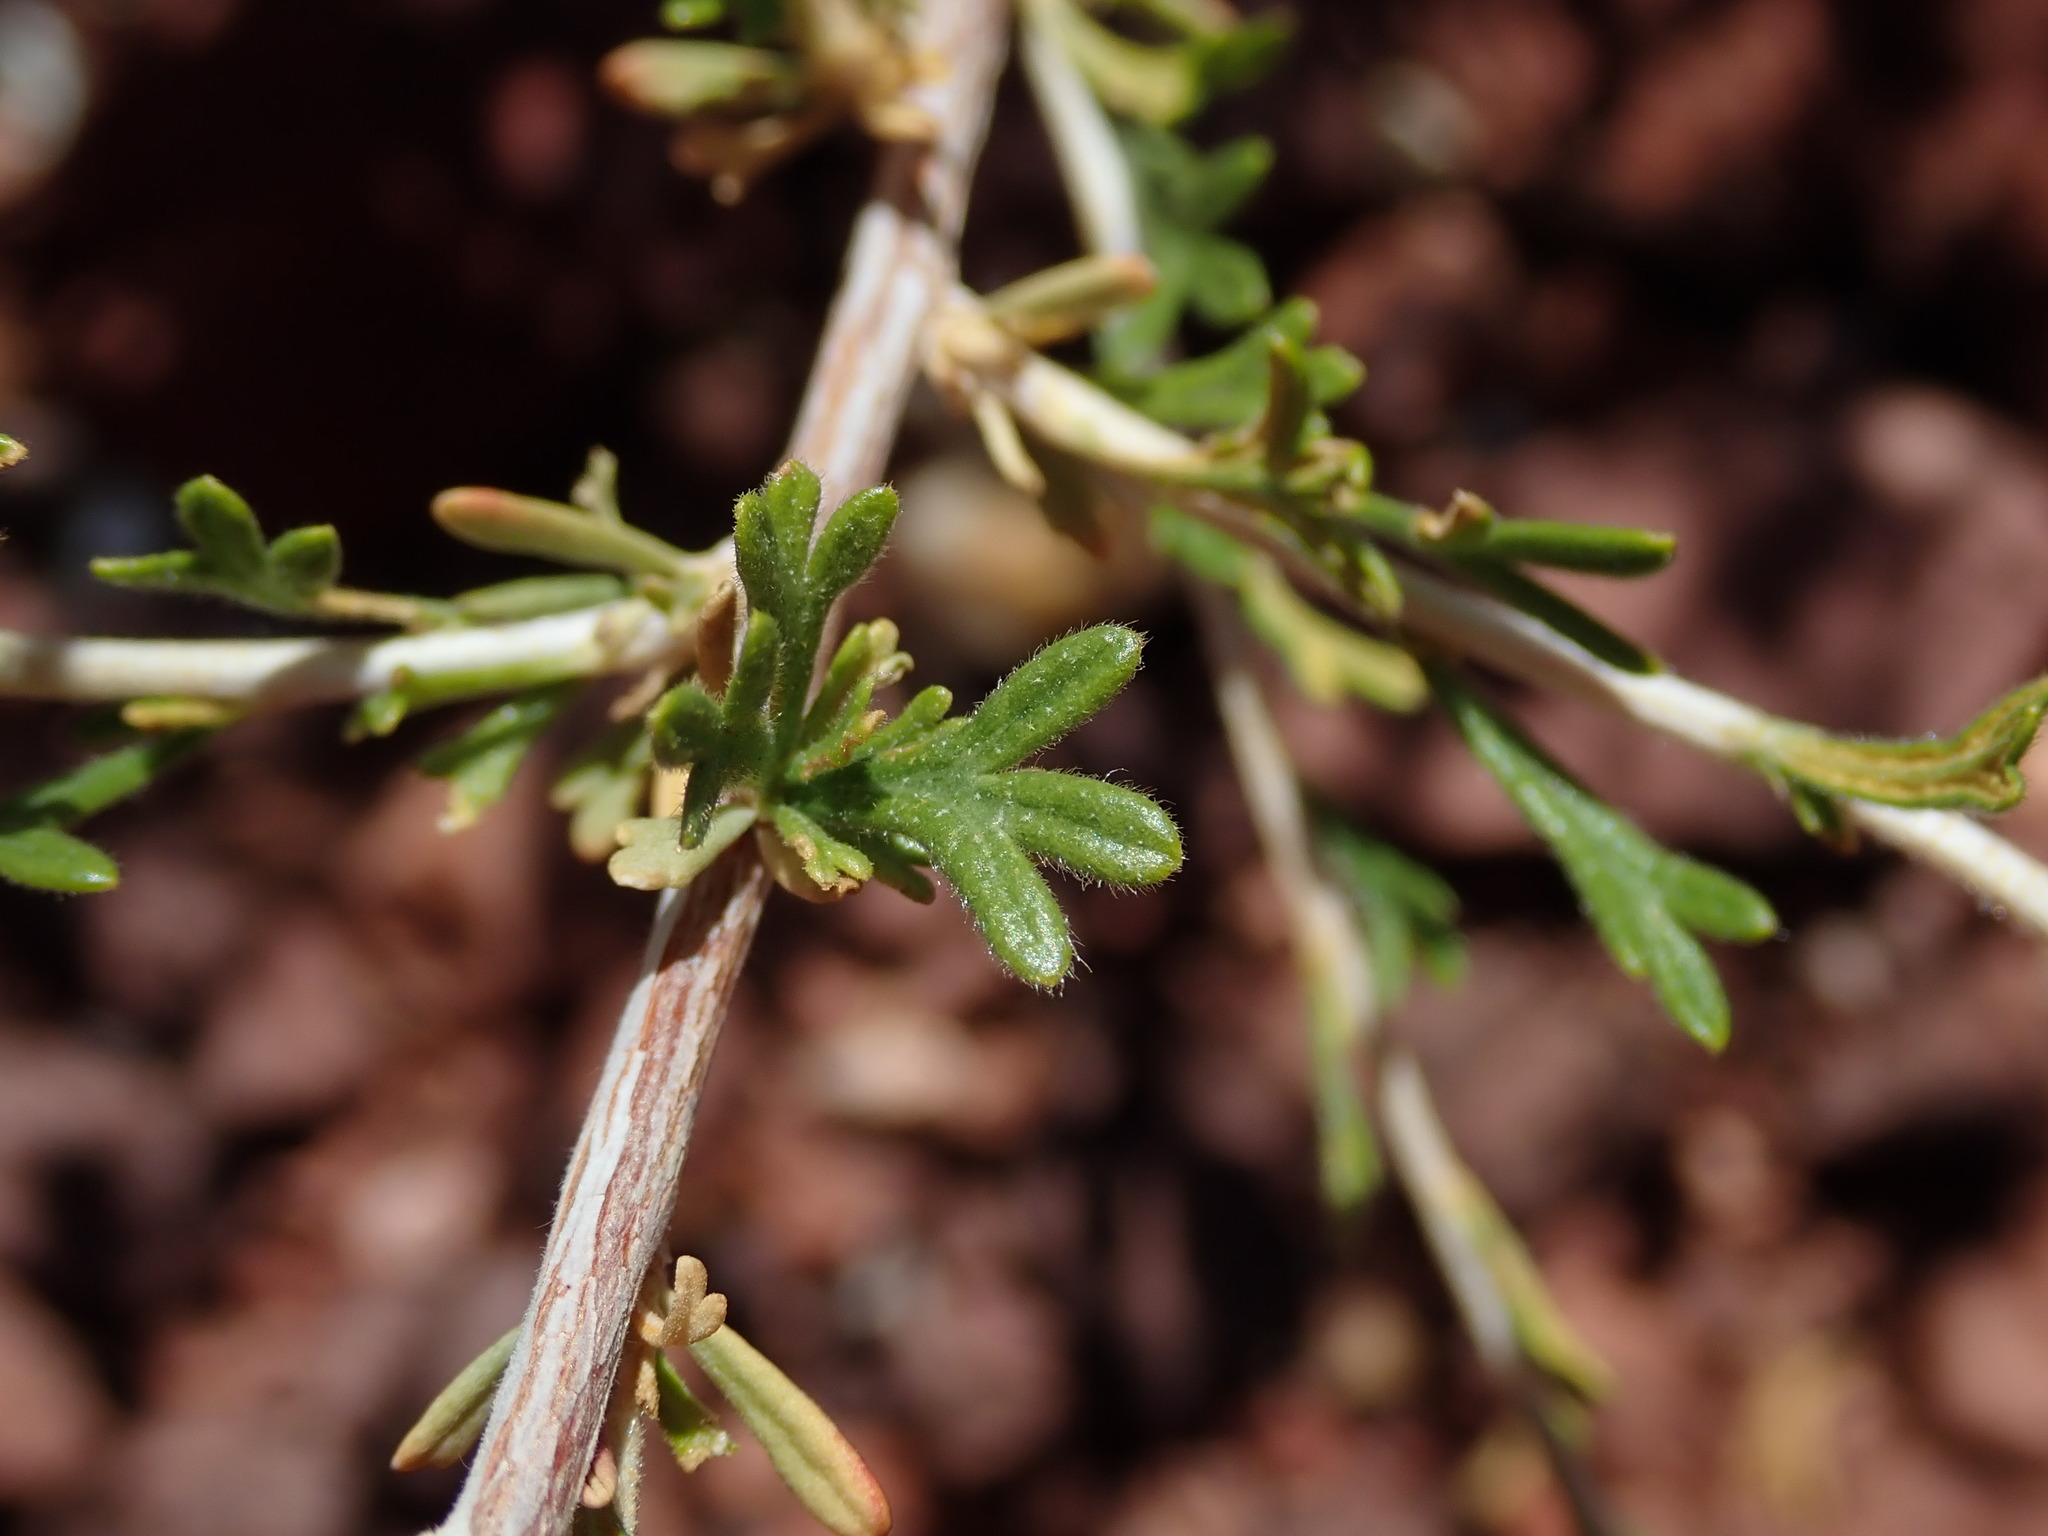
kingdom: Plantae
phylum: Tracheophyta
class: Magnoliopsida
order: Rosales
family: Rosaceae
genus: Fallugia
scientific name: Fallugia paradoxa
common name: Apache-plume
